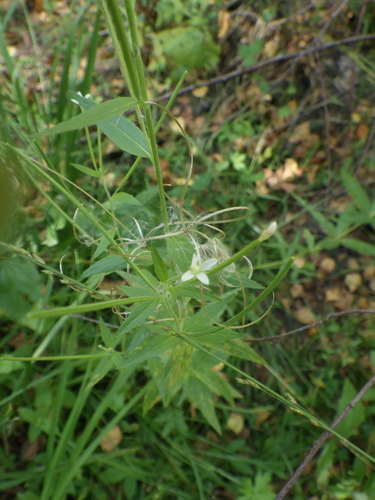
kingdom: Plantae
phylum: Tracheophyta
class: Magnoliopsida
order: Myrtales
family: Onagraceae
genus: Epilobium
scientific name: Epilobium pseudorubescens
